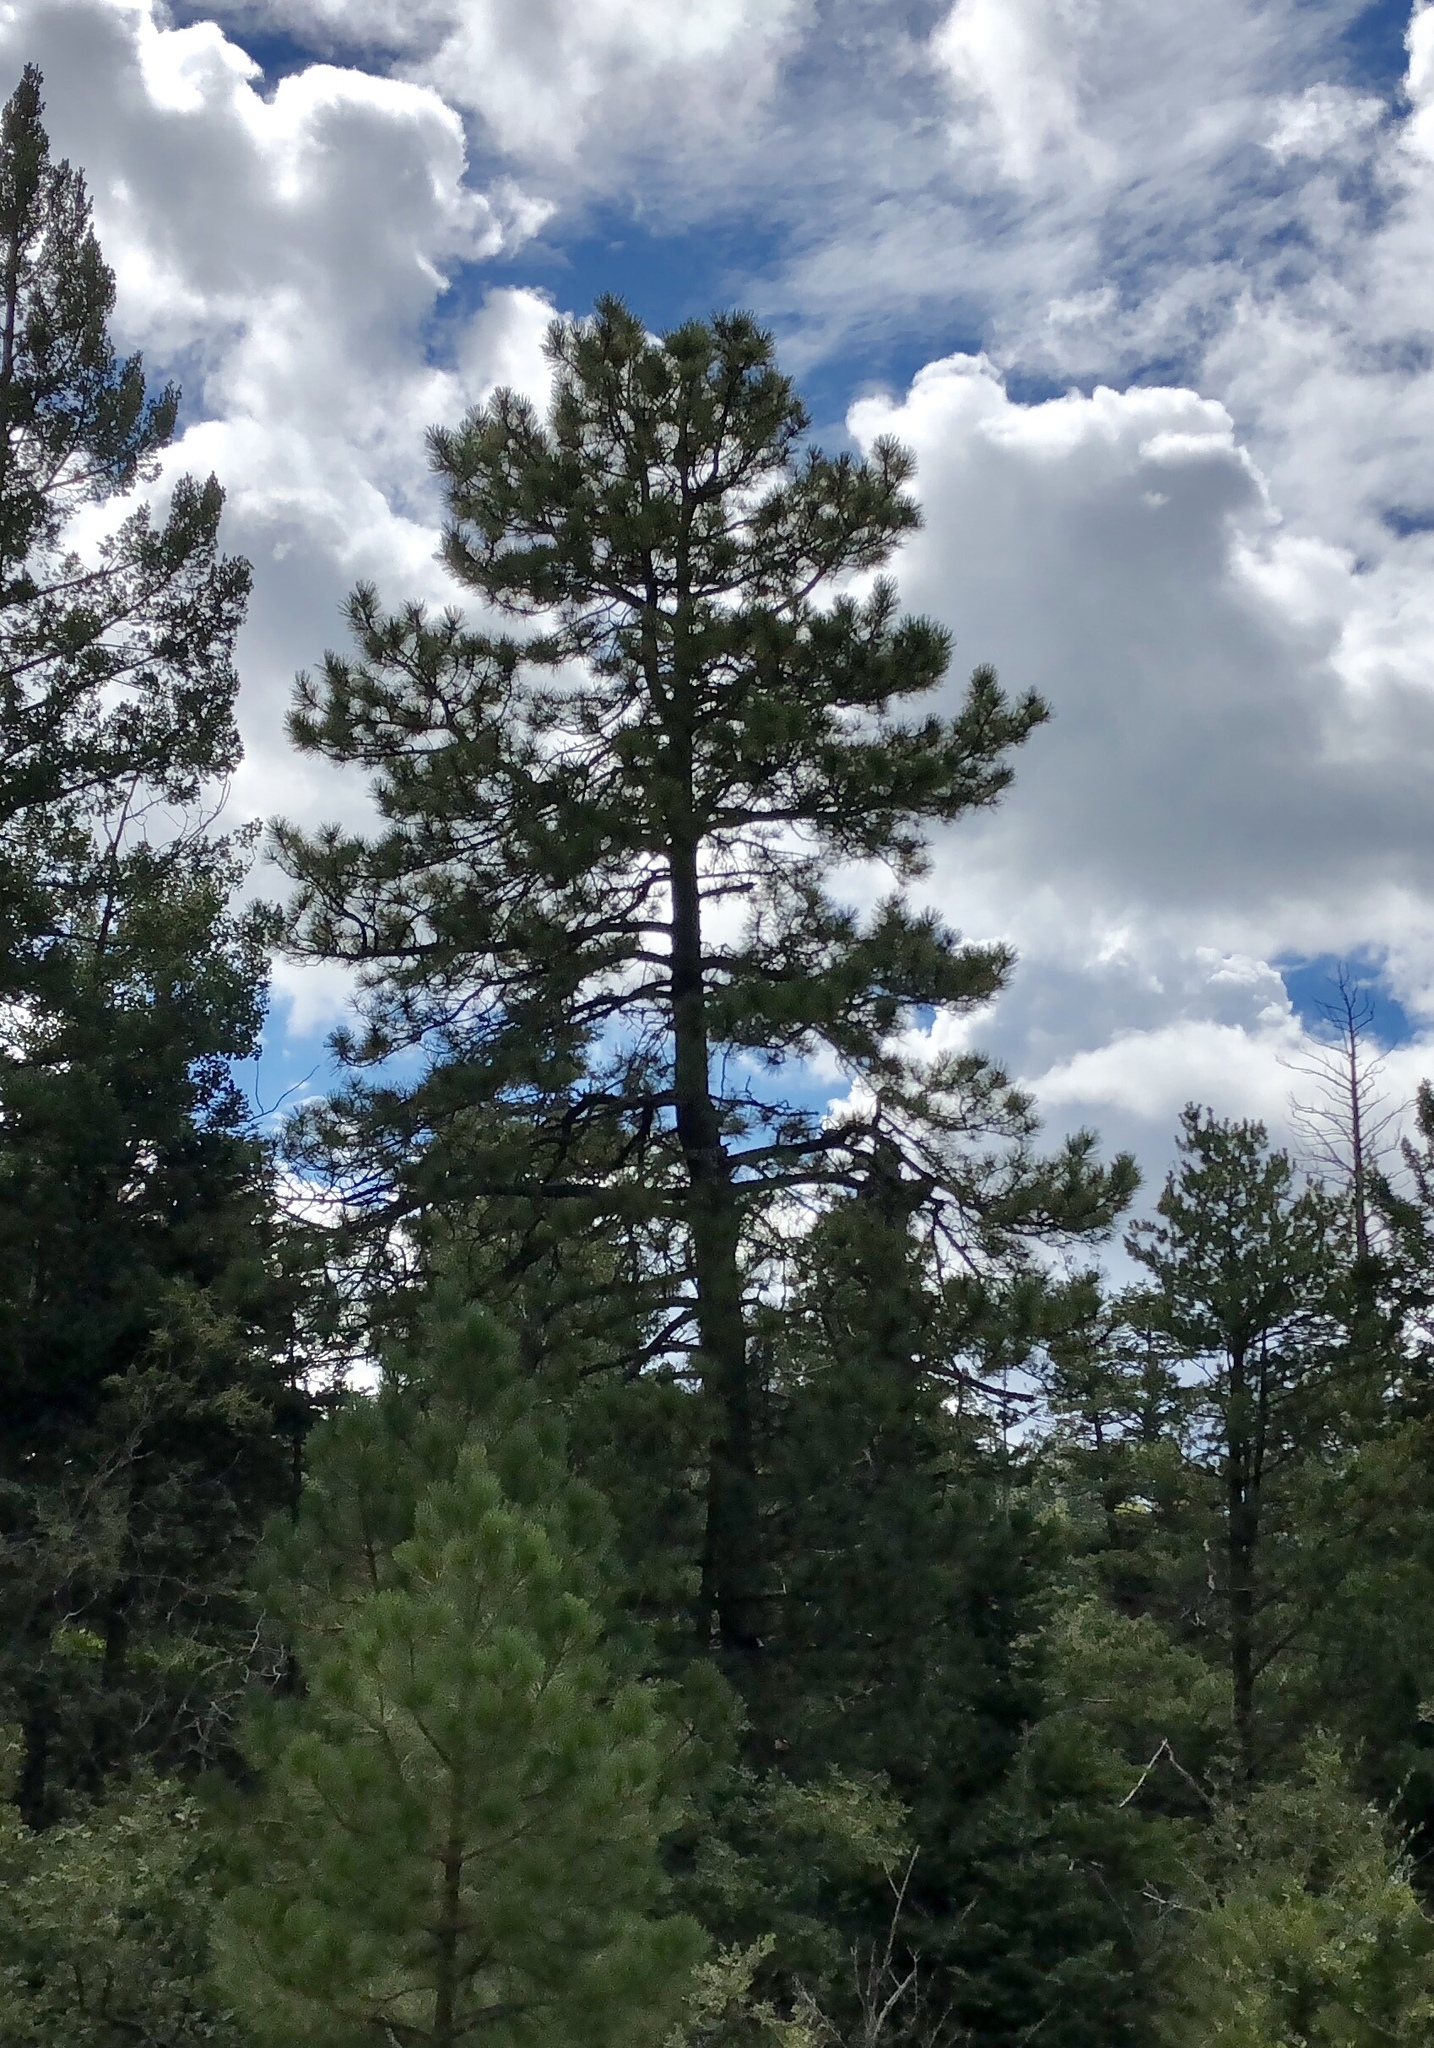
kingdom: Plantae
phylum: Tracheophyta
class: Pinopsida
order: Pinales
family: Pinaceae
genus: Pinus
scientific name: Pinus ponderosa
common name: Western yellow-pine
